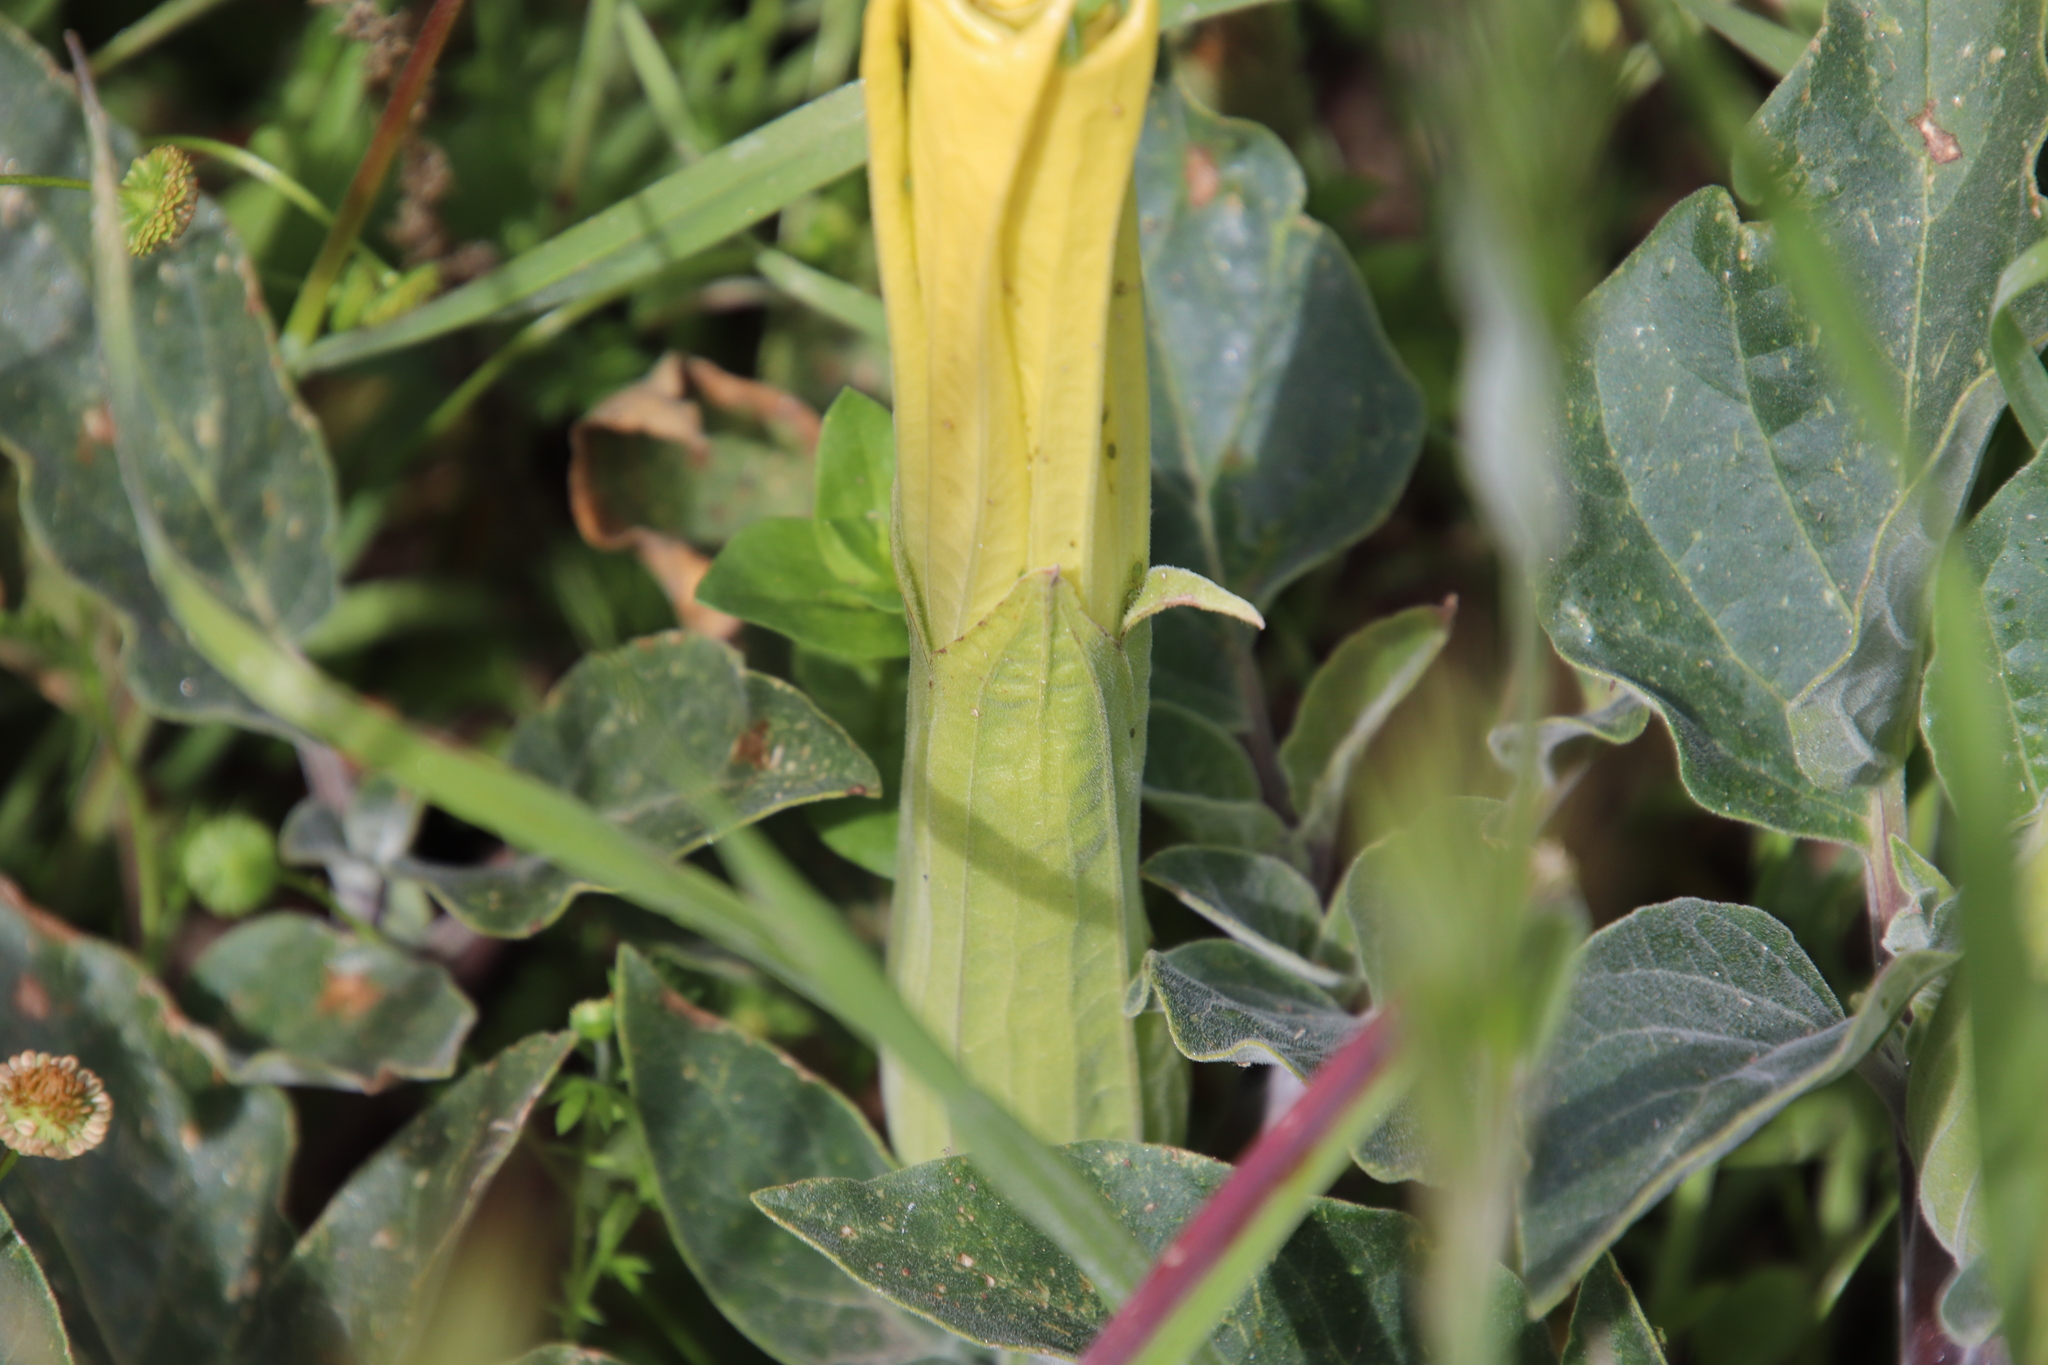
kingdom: Plantae
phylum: Tracheophyta
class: Magnoliopsida
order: Solanales
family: Solanaceae
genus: Datura
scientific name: Datura wrightii
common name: Sacred thorn-apple
